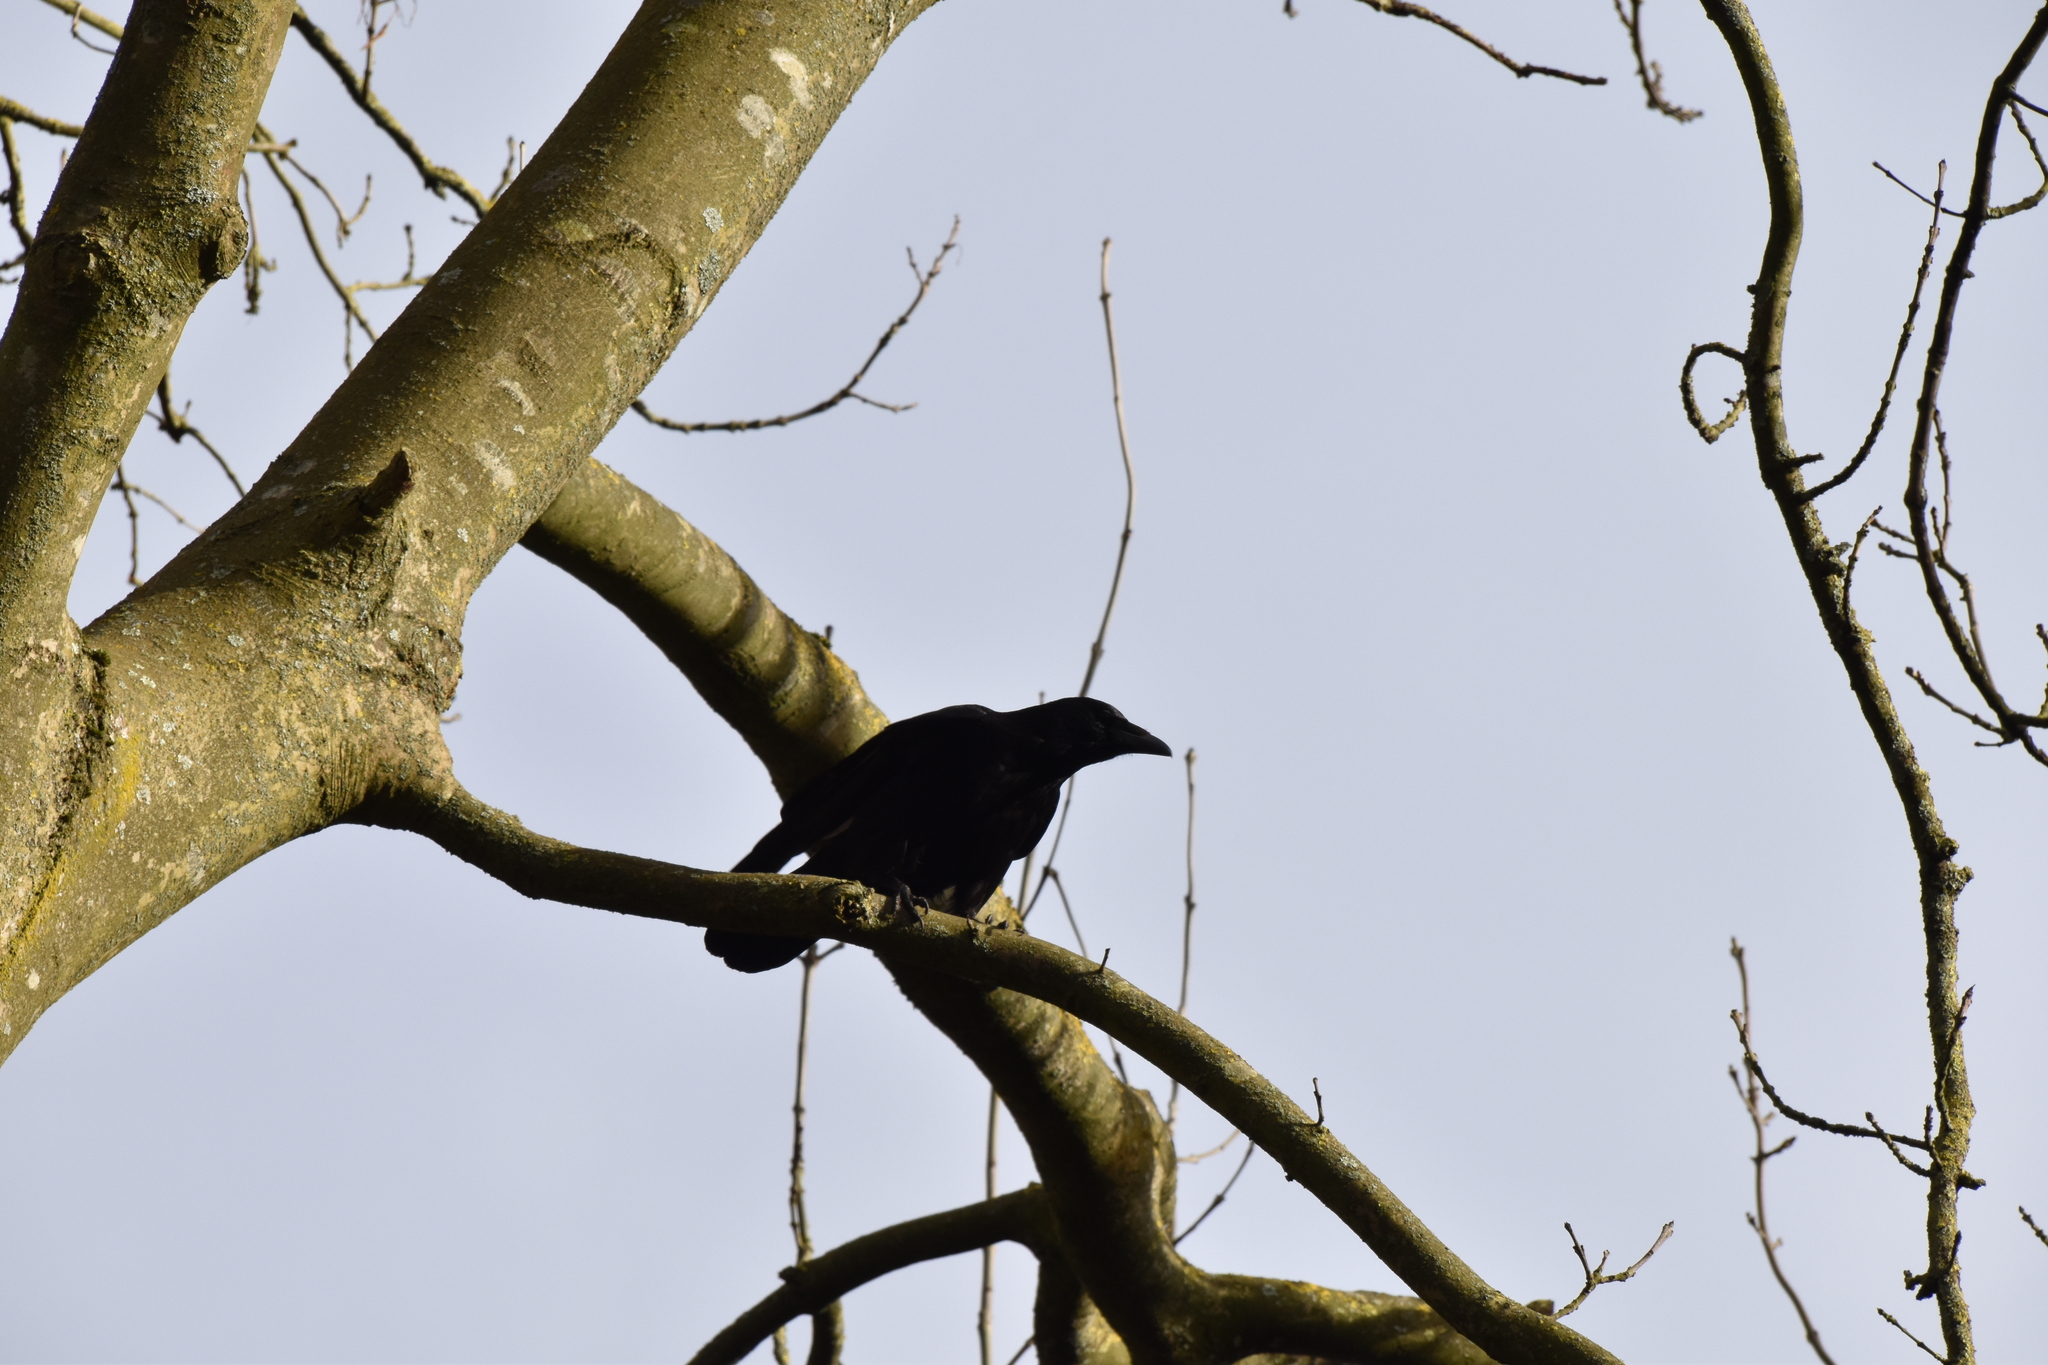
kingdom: Animalia
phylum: Chordata
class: Aves
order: Passeriformes
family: Corvidae
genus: Corvus
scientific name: Corvus corone
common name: Carrion crow
